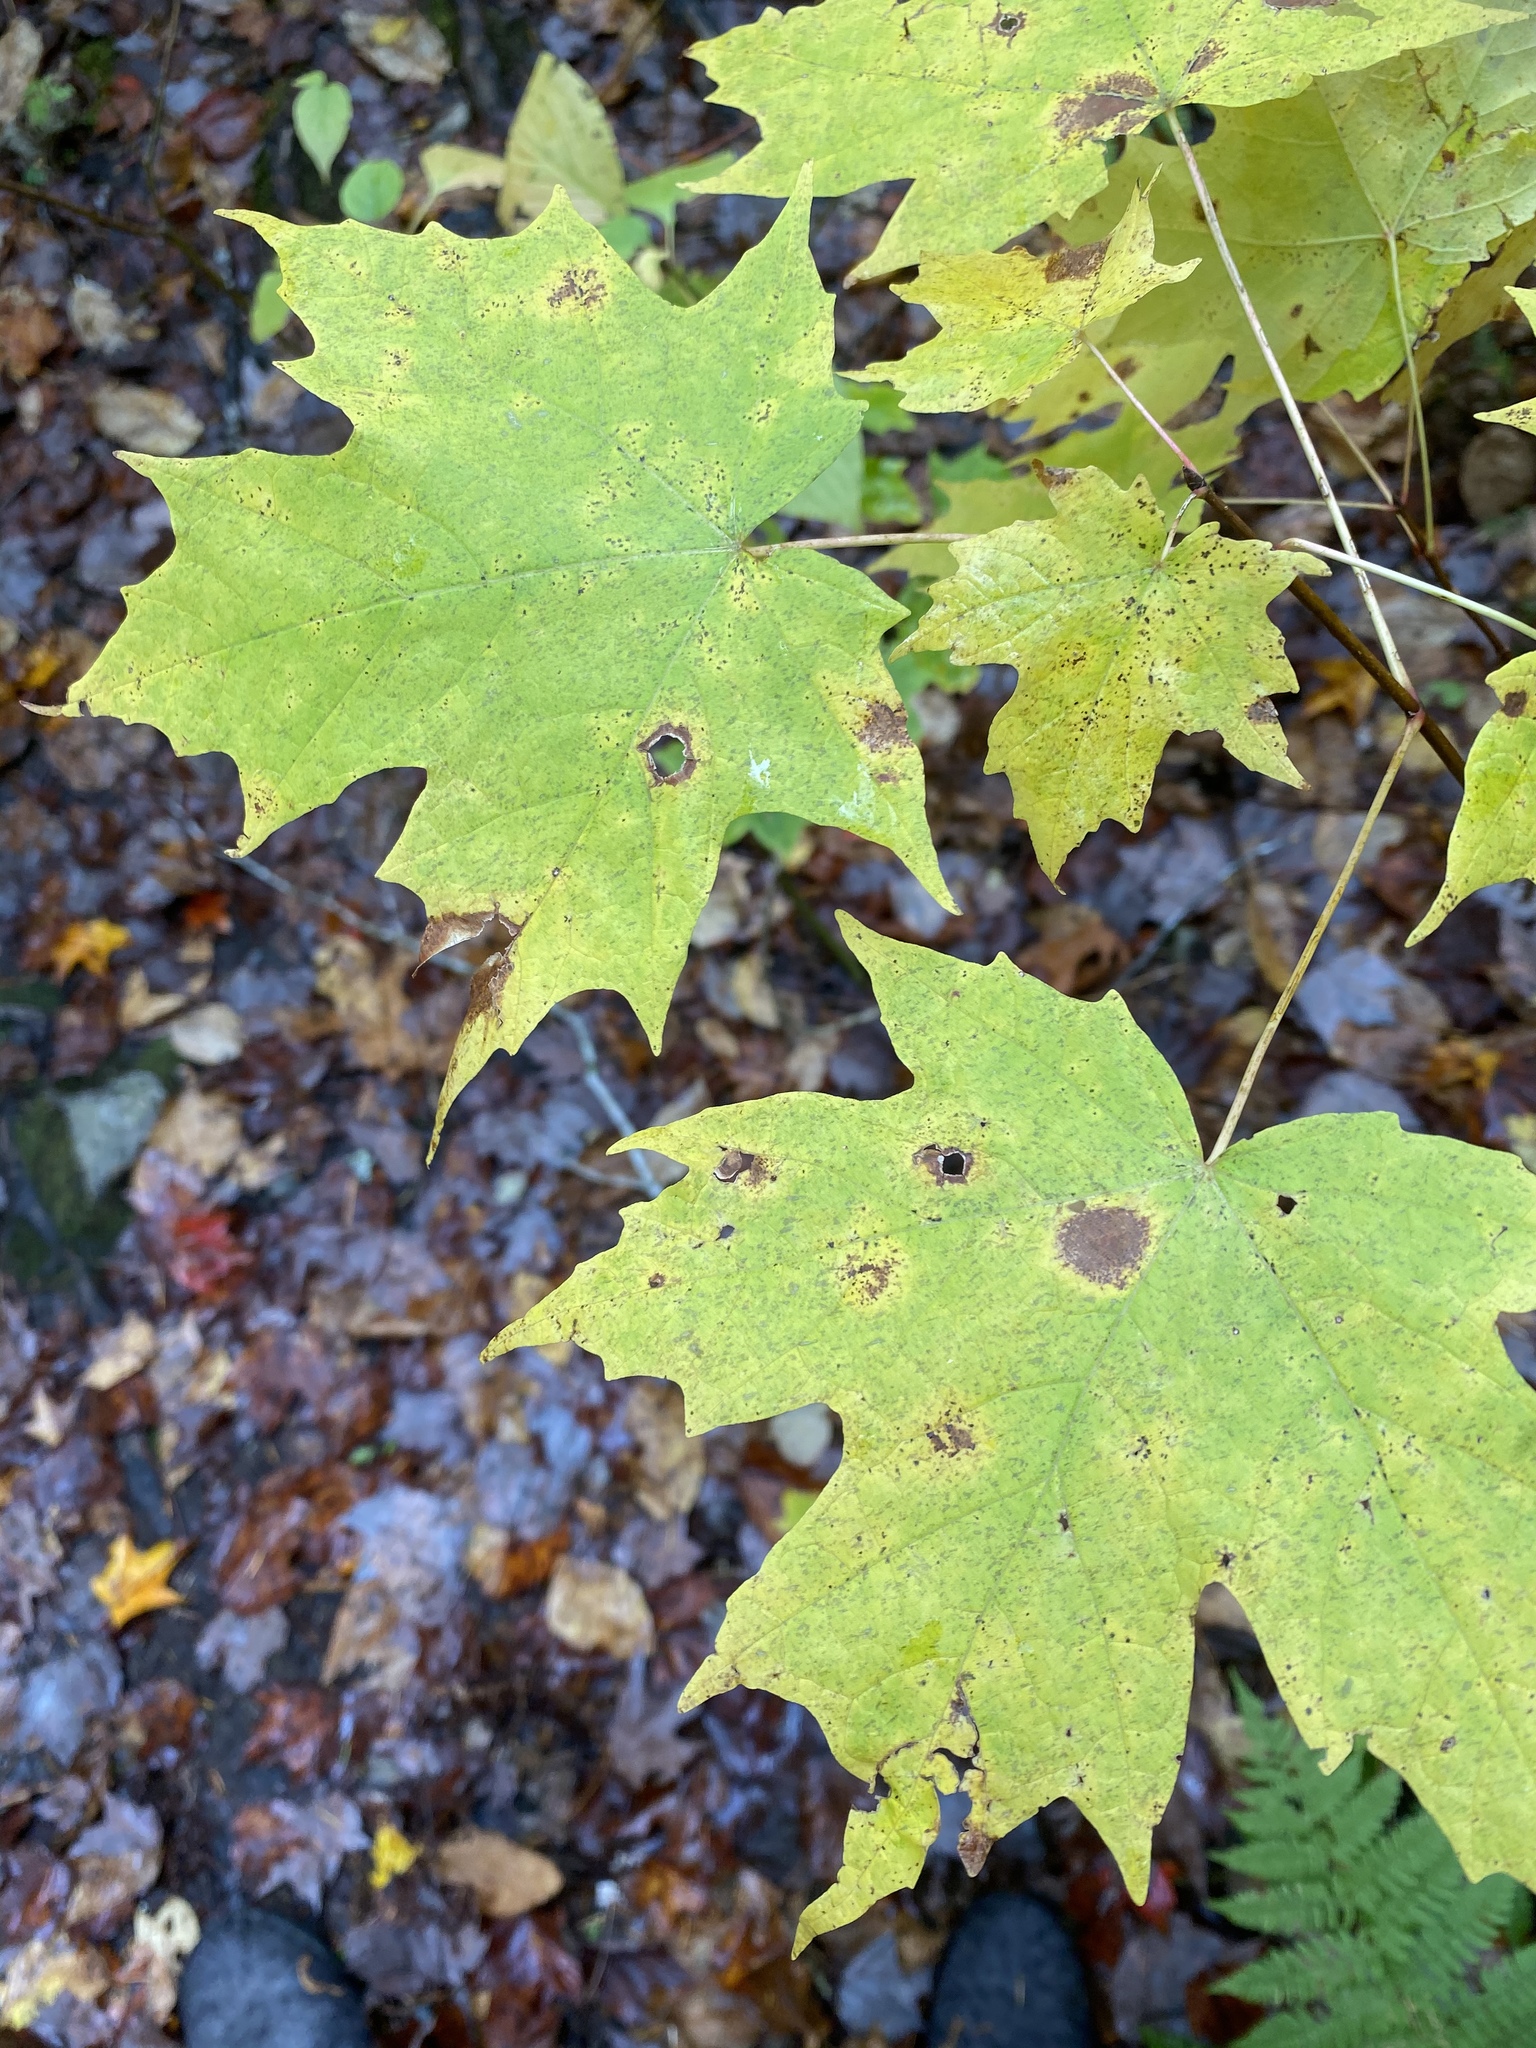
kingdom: Plantae
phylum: Tracheophyta
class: Magnoliopsida
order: Sapindales
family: Sapindaceae
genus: Acer
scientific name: Acer saccharum
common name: Sugar maple
